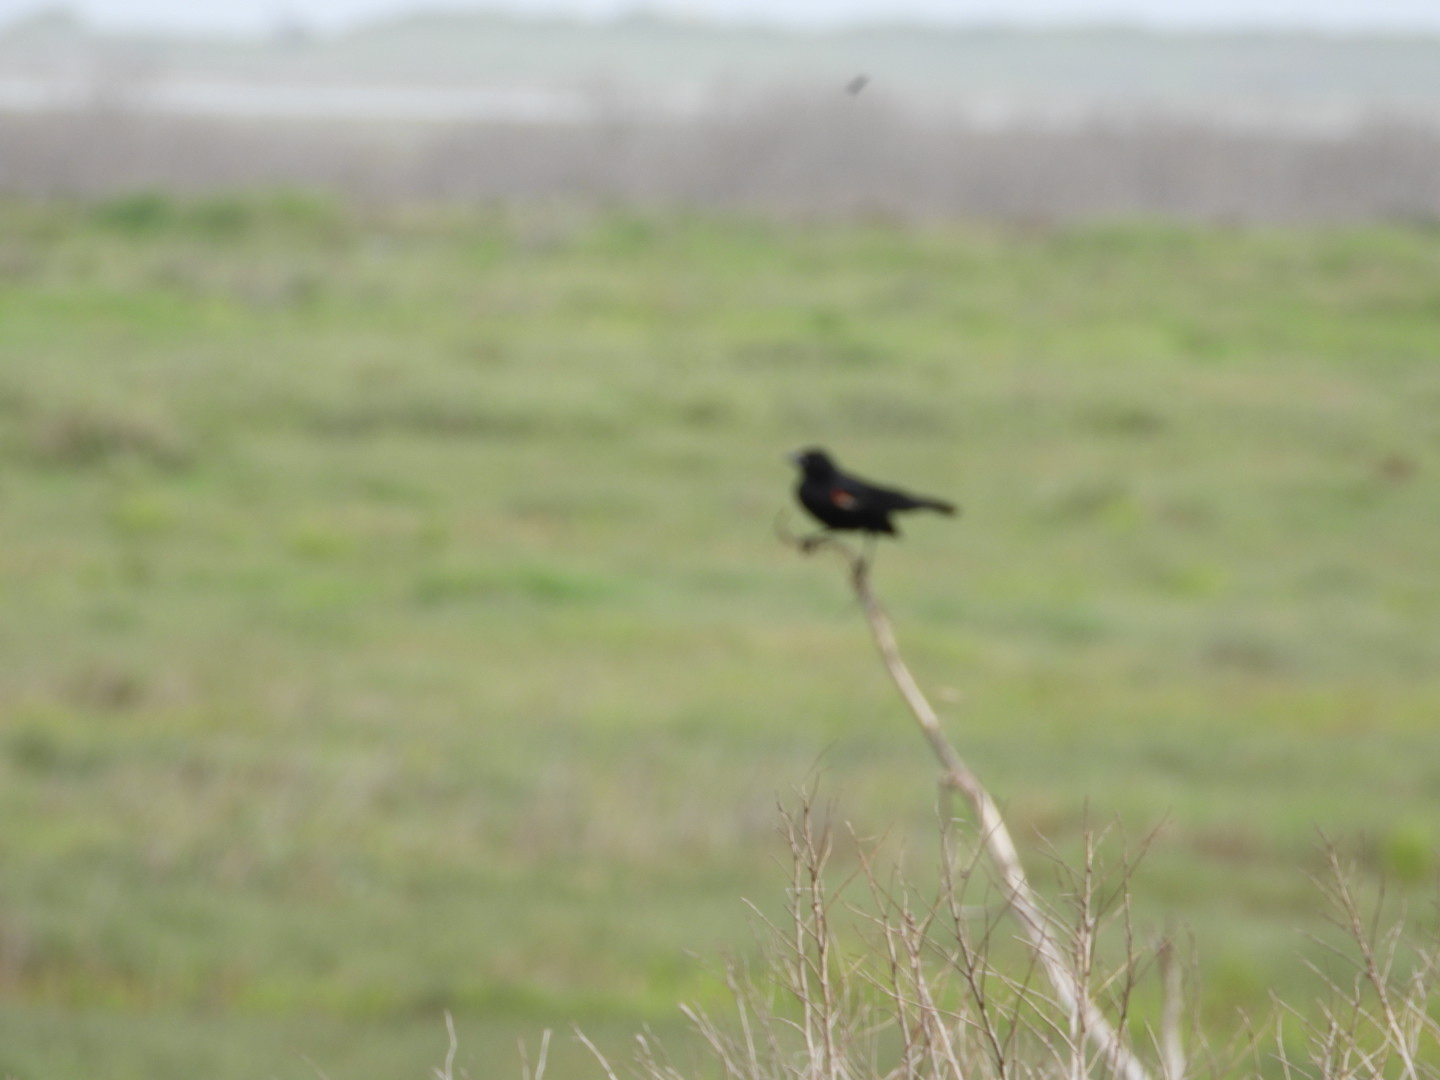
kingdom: Animalia
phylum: Chordata
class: Aves
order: Passeriformes
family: Icteridae
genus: Agelaius
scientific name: Agelaius phoeniceus
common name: Red-winged blackbird
